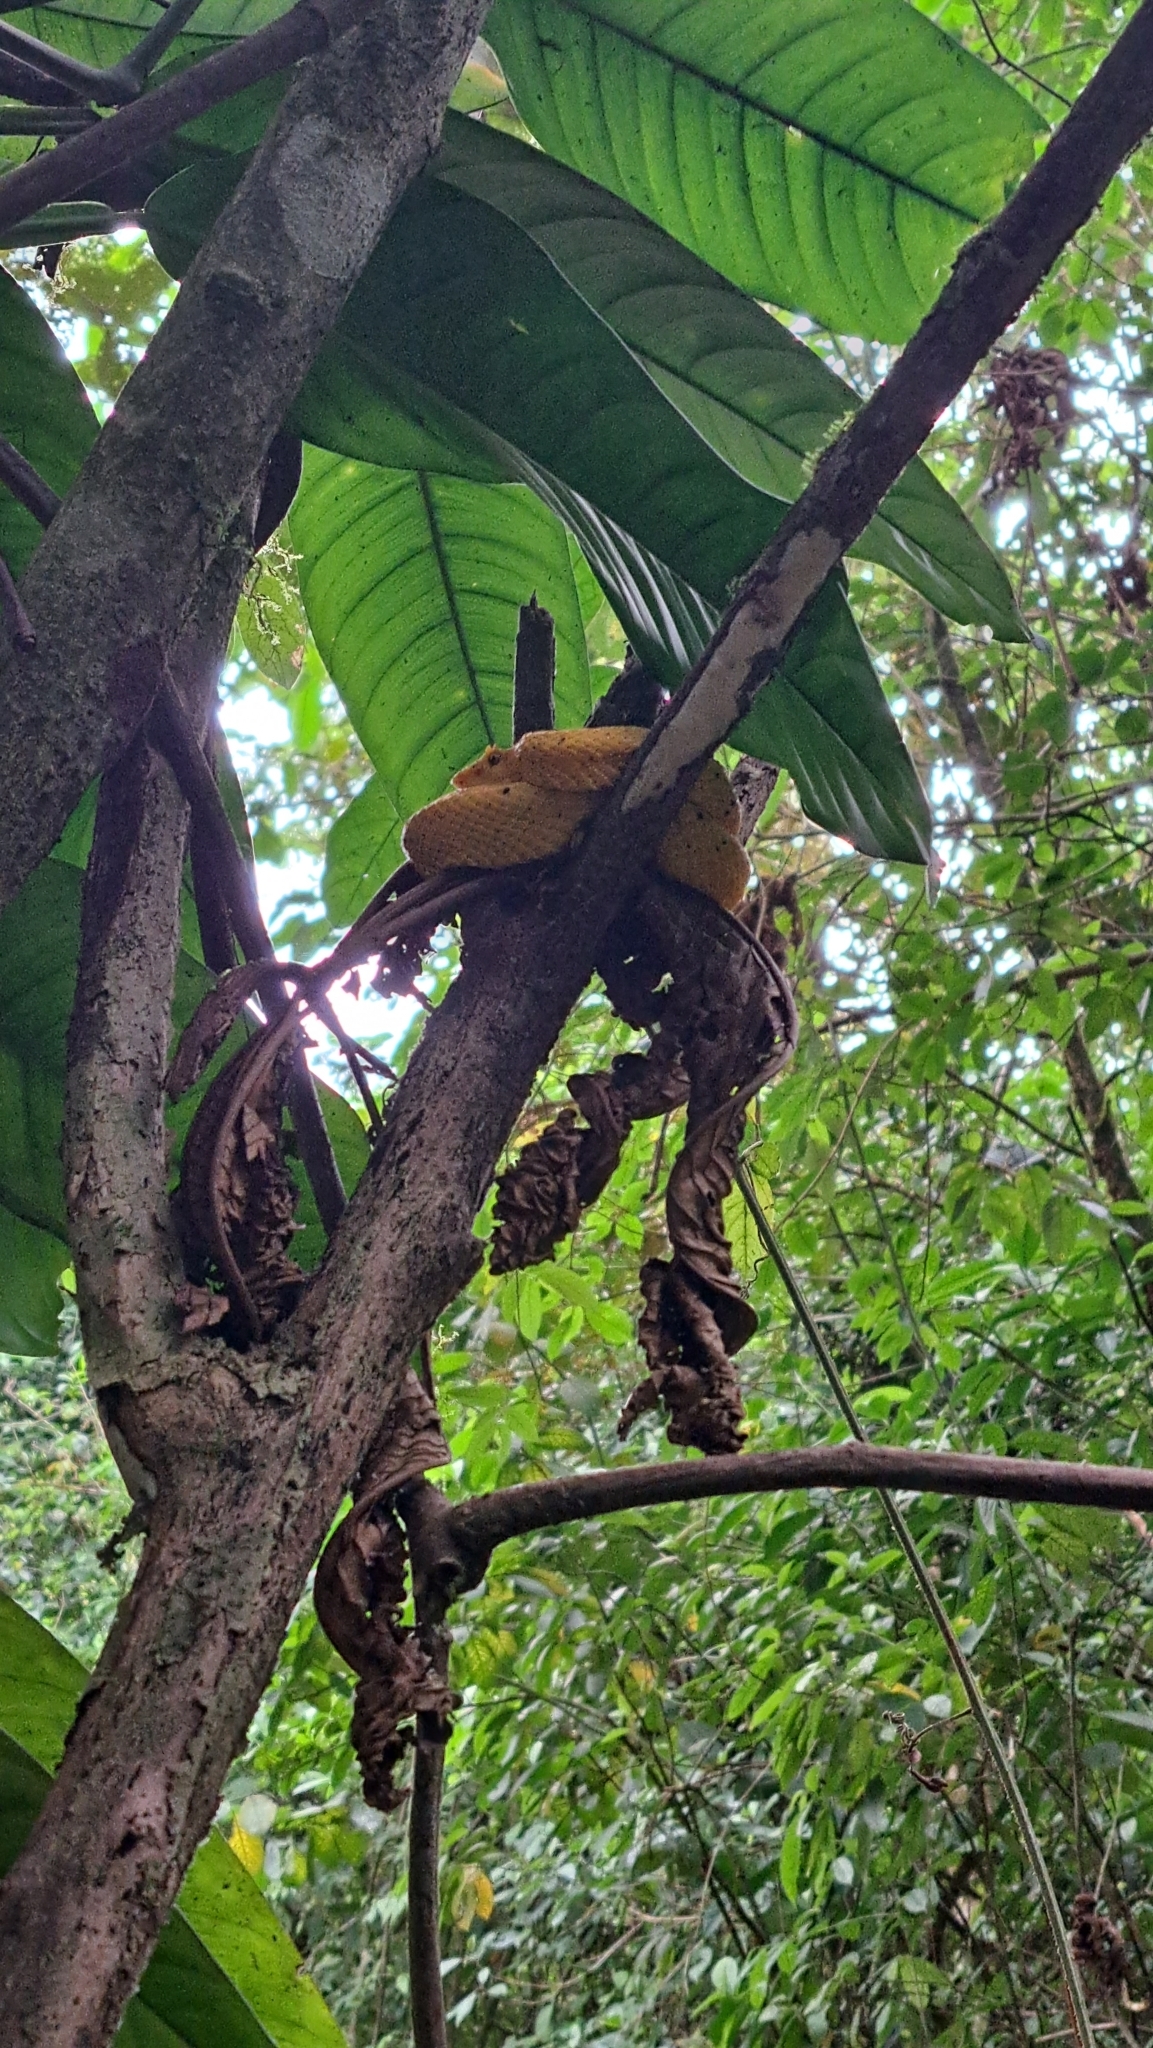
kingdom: Animalia
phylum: Chordata
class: Squamata
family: Viperidae
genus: Bothriechis
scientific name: Bothriechis schlegelii
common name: Eyelash viper
